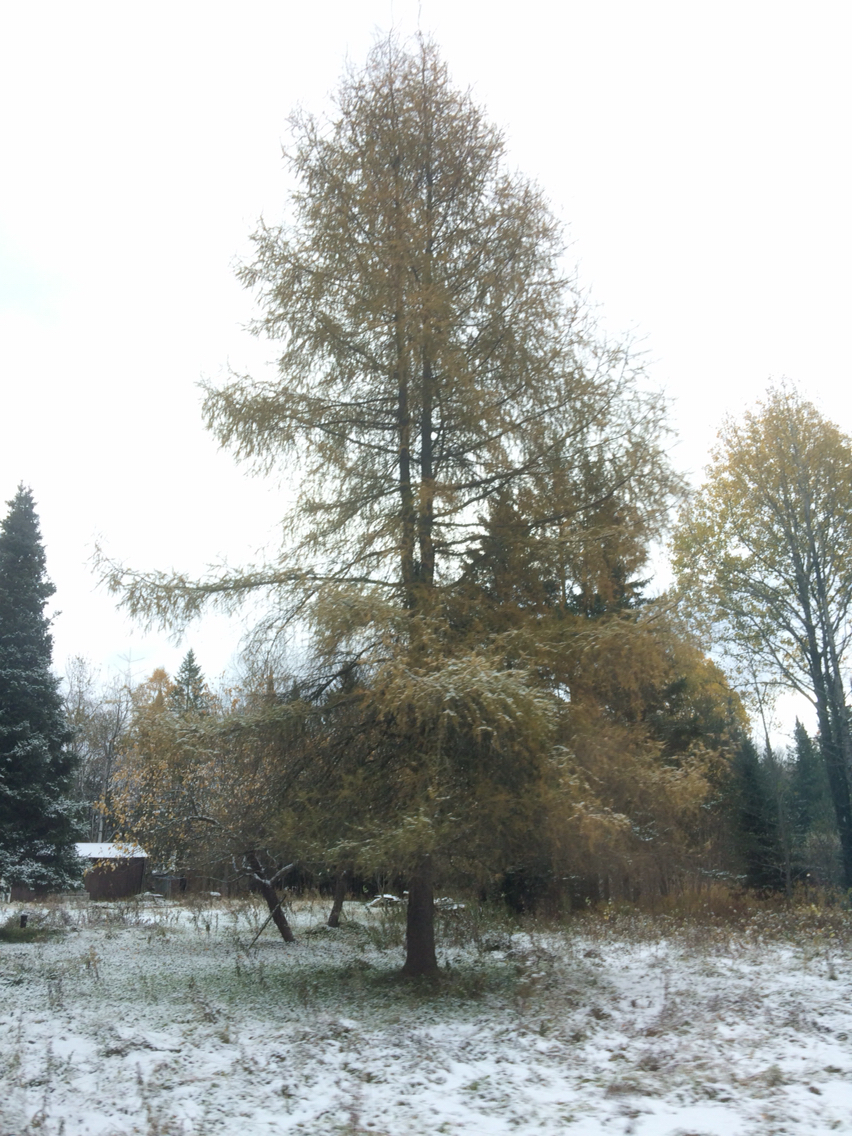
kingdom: Plantae
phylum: Tracheophyta
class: Pinopsida
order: Pinales
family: Pinaceae
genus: Larix
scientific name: Larix laricina
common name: American larch
